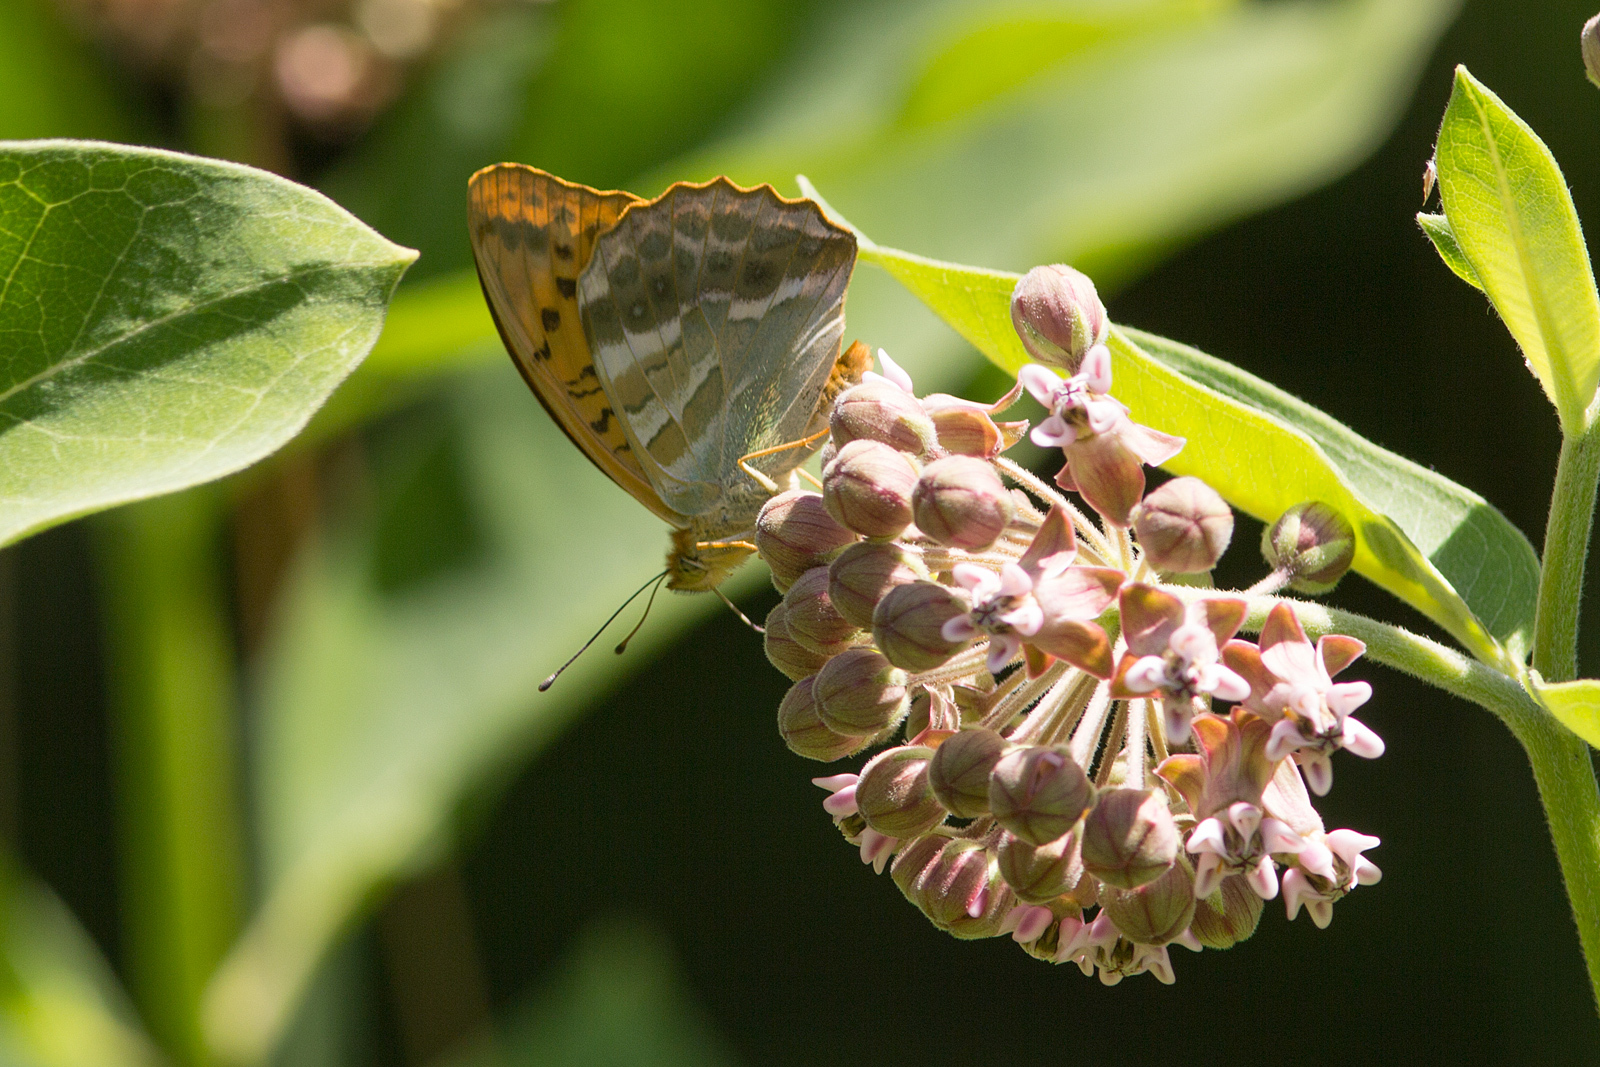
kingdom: Animalia
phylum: Arthropoda
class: Insecta
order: Lepidoptera
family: Nymphalidae
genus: Argynnis
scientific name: Argynnis paphia
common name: Silver-washed fritillary
